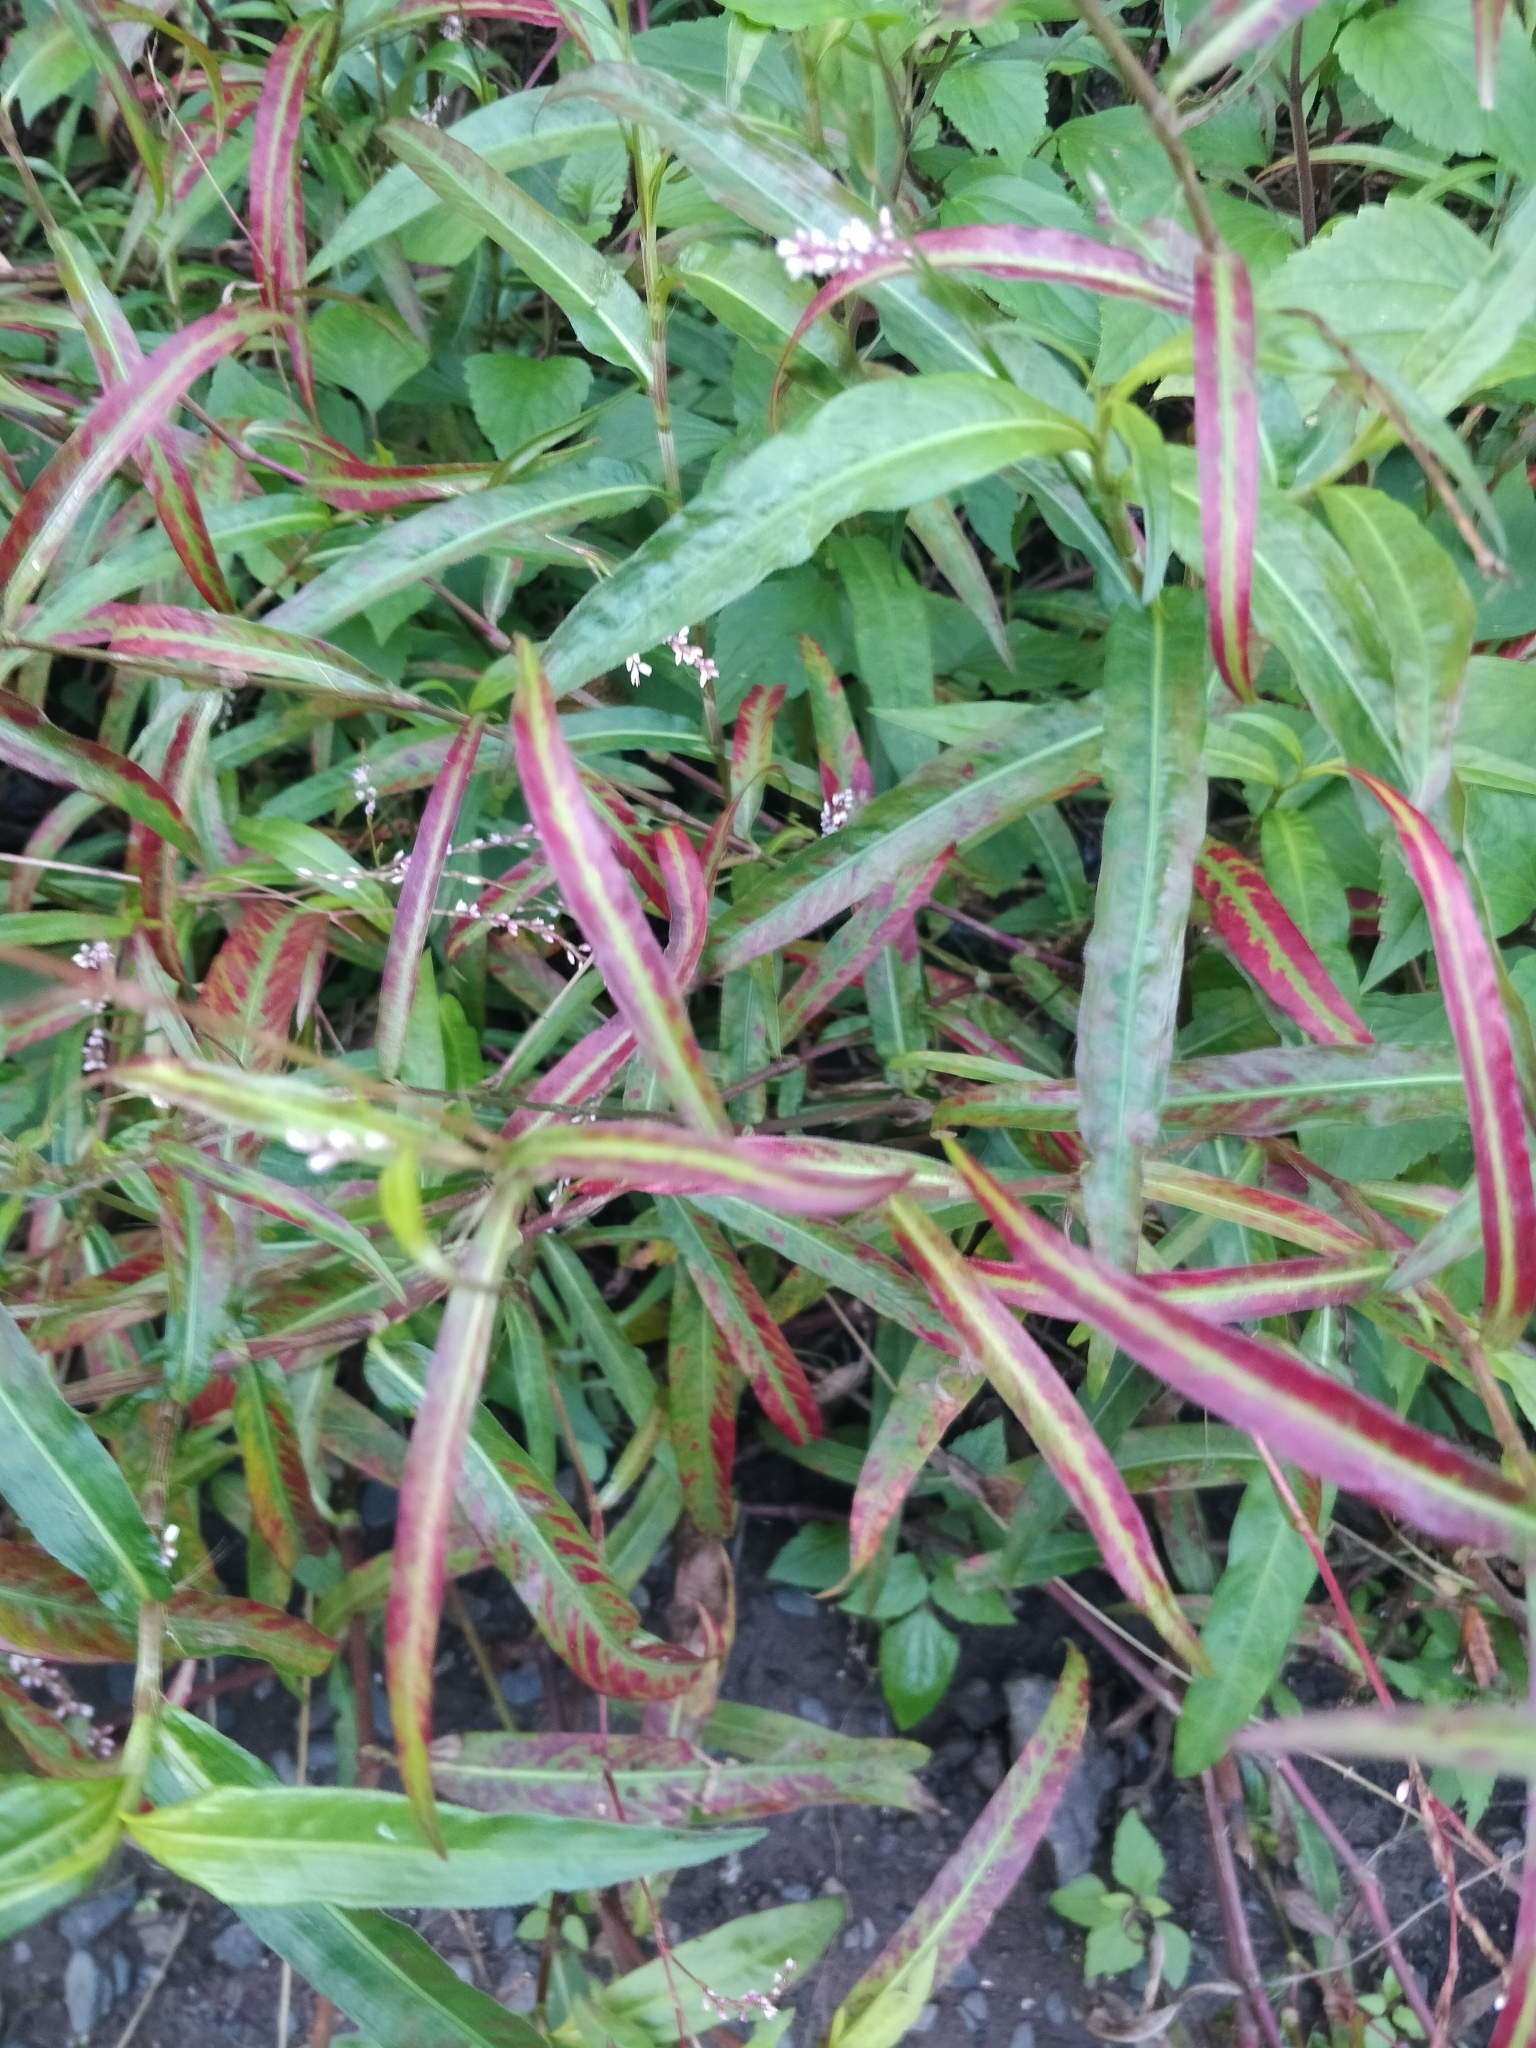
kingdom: Plantae
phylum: Tracheophyta
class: Magnoliopsida
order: Caryophyllales
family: Polygonaceae
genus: Persicaria
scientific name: Persicaria decipiens
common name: Willow-weed
